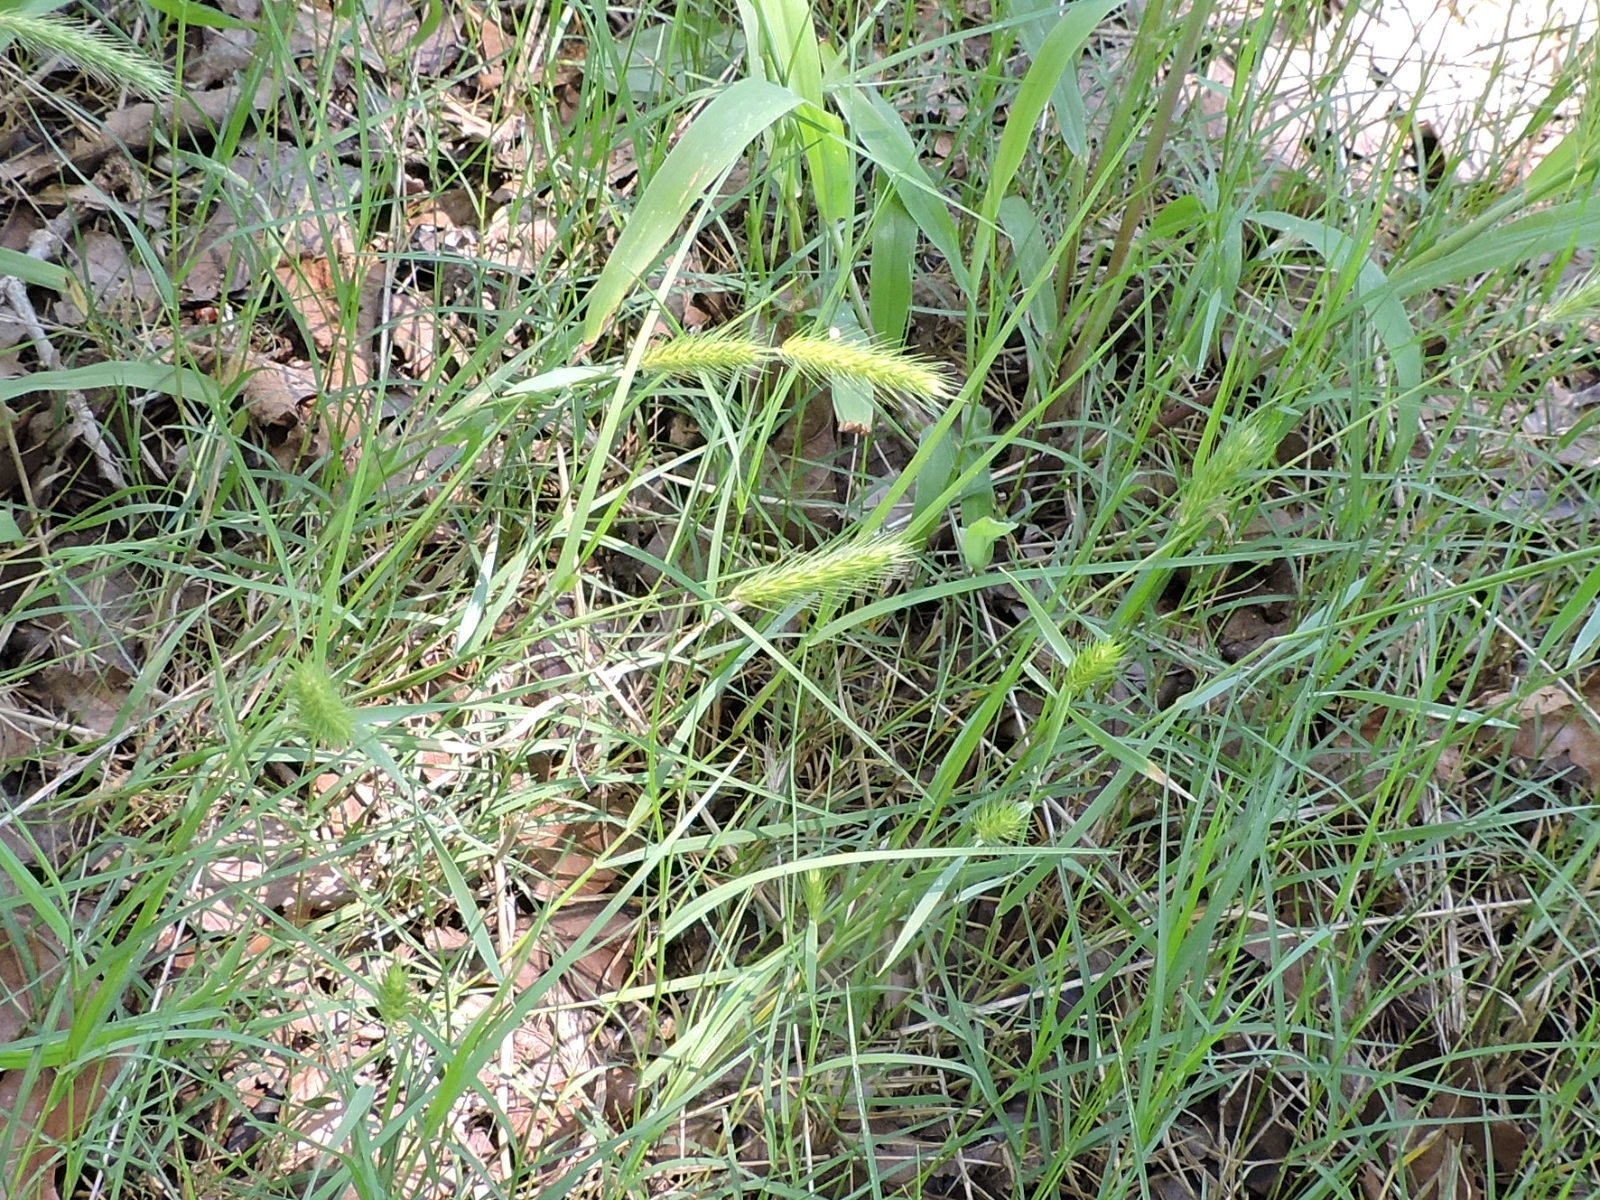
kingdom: Plantae
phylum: Tracheophyta
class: Liliopsida
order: Poales
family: Poaceae
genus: Hordeum
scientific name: Hordeum pusillum
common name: Little barley
